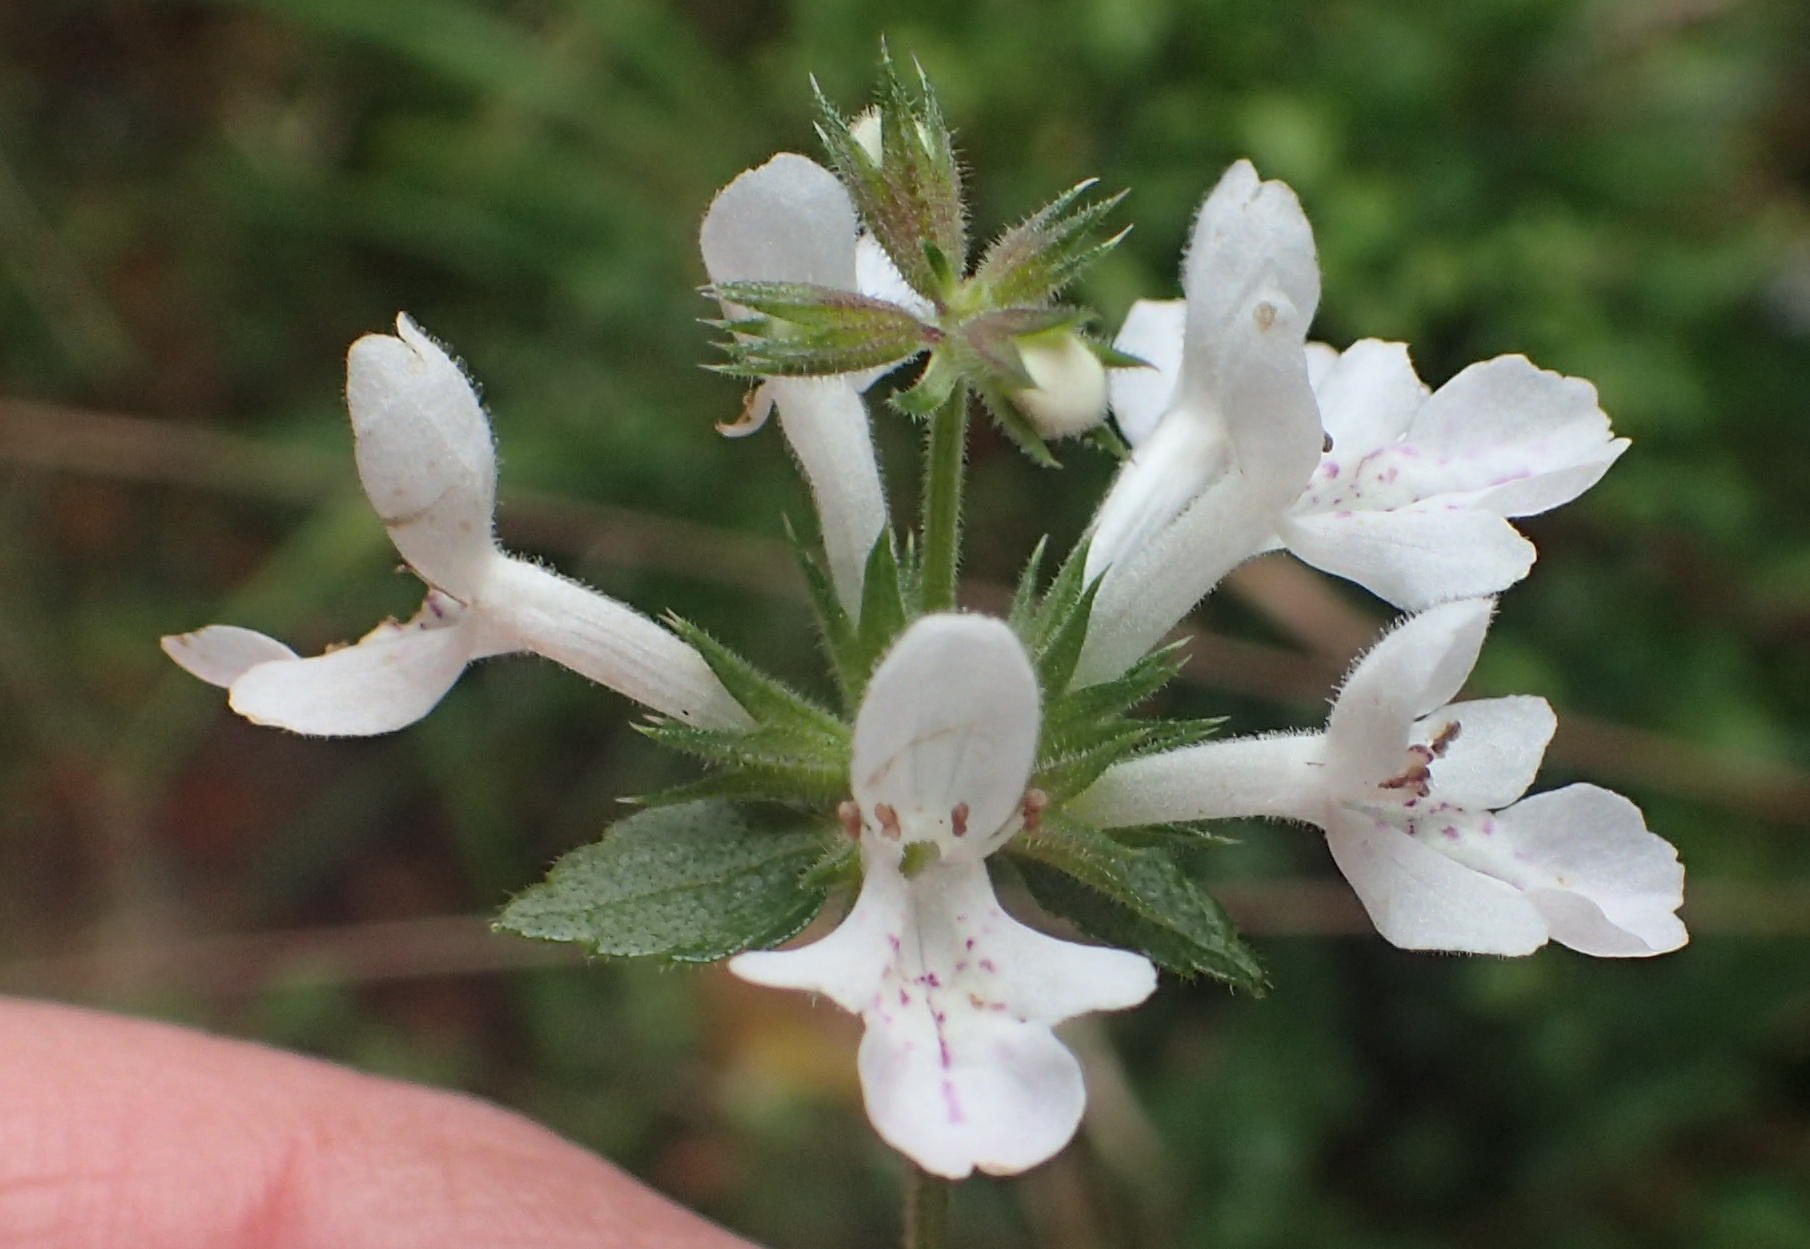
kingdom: Plantae
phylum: Tracheophyta
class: Magnoliopsida
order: Lamiales
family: Lamiaceae
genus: Stachys
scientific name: Stachys aethiopica
